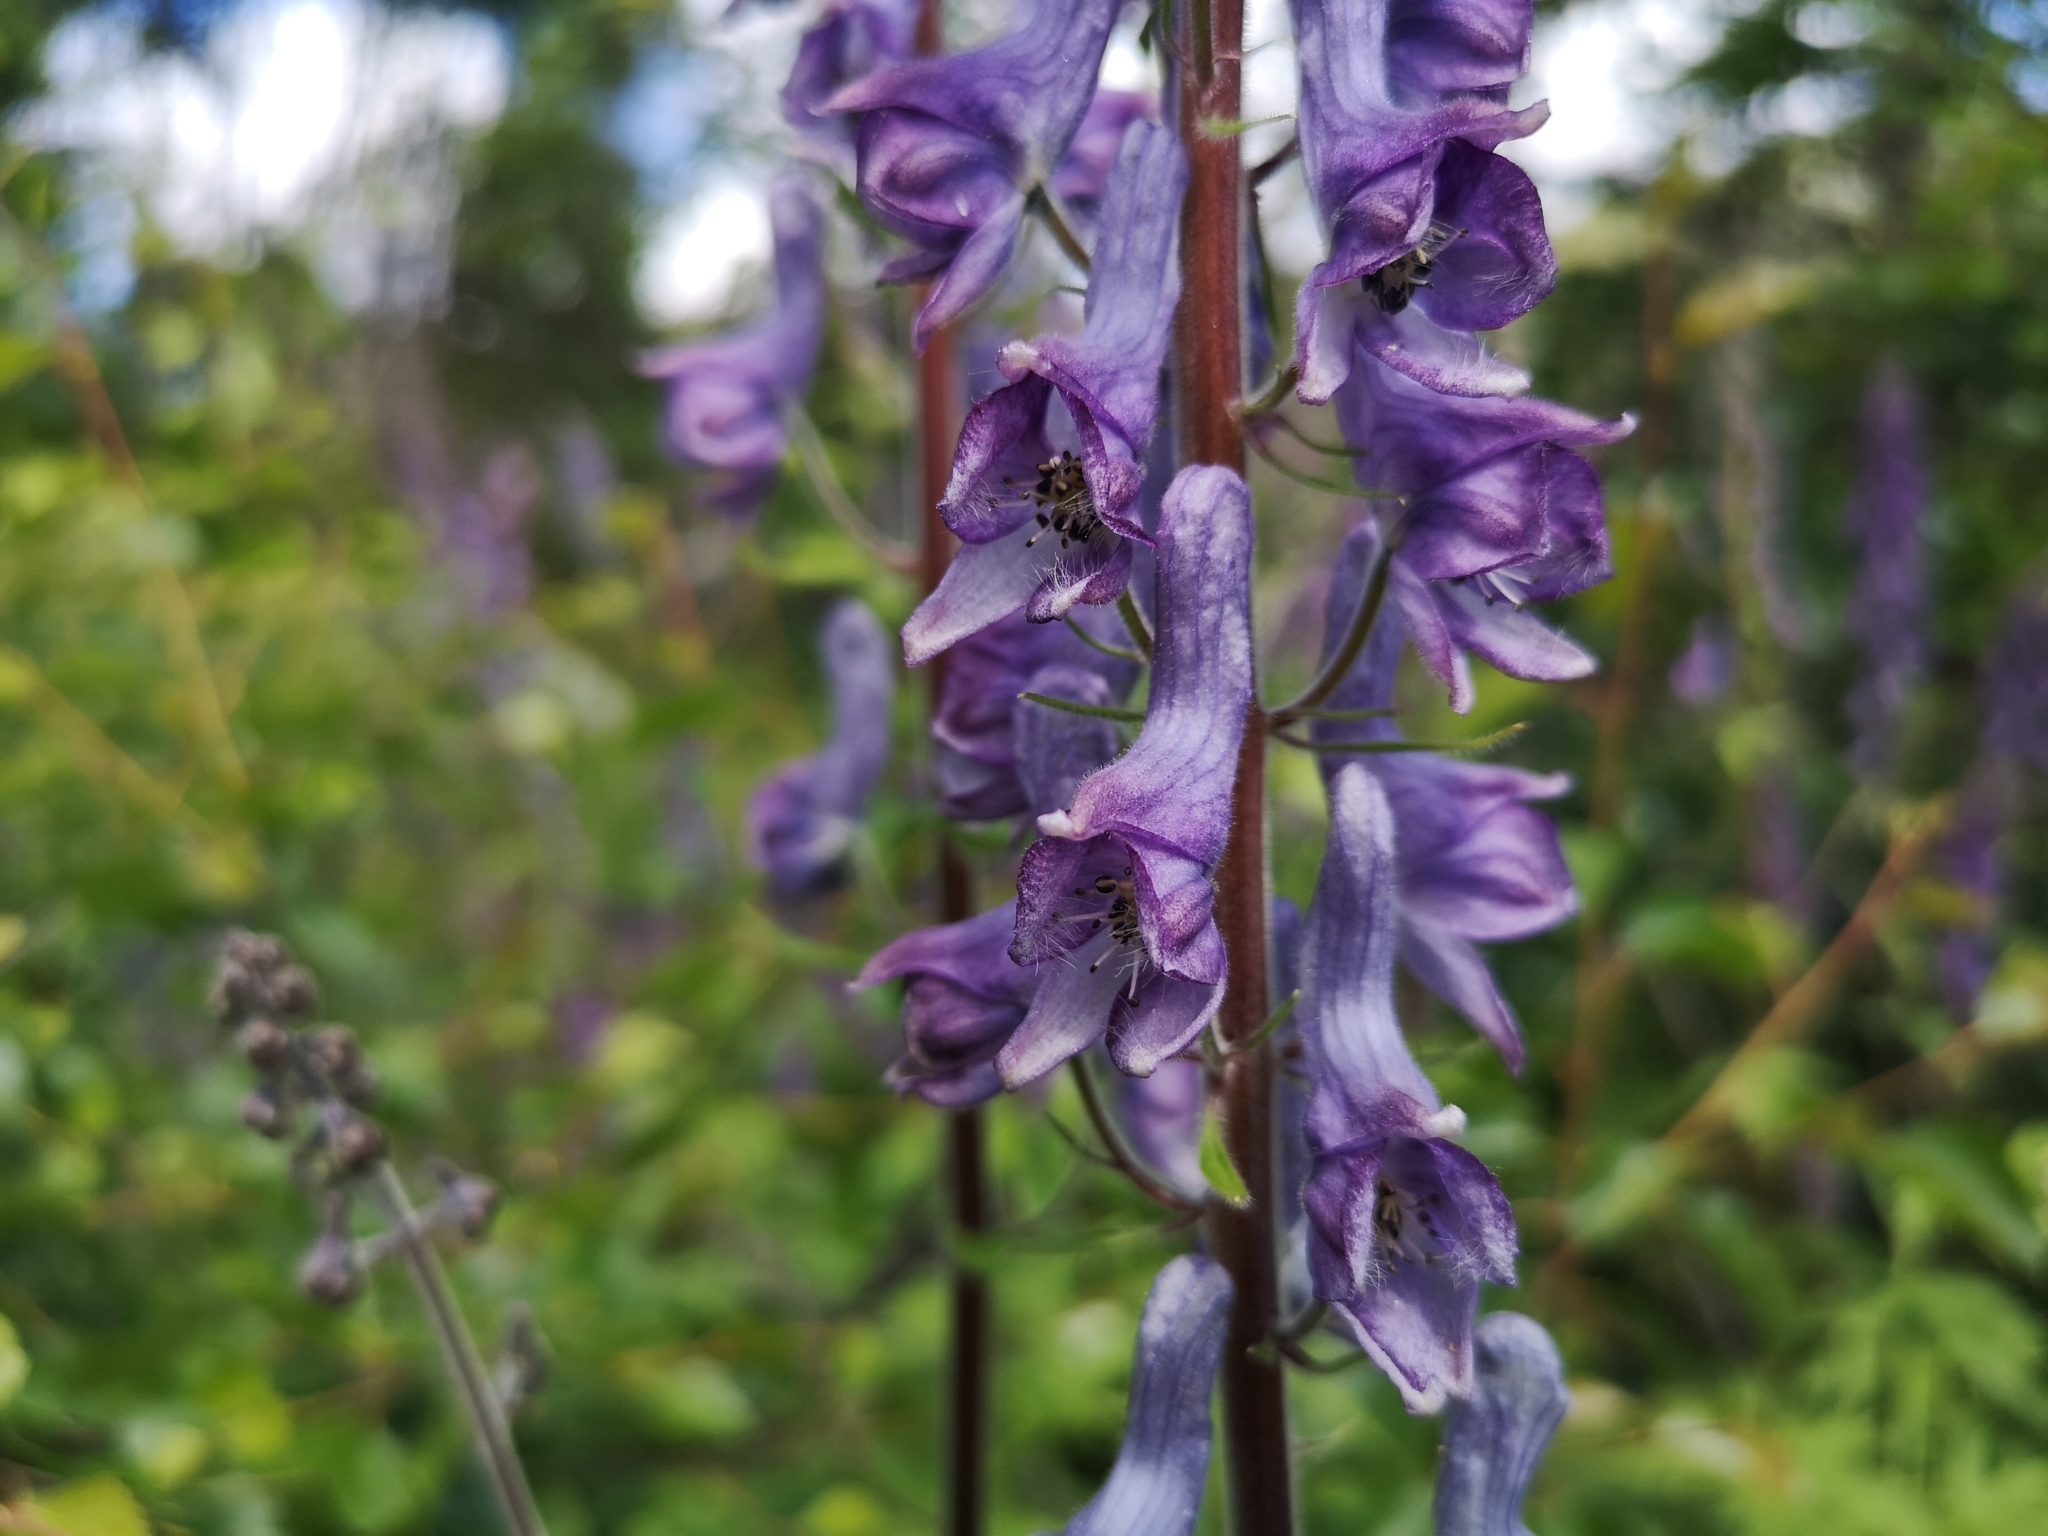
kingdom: Plantae
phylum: Tracheophyta
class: Magnoliopsida
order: Ranunculales
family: Ranunculaceae
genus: Aconitum
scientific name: Aconitum septentrionale
